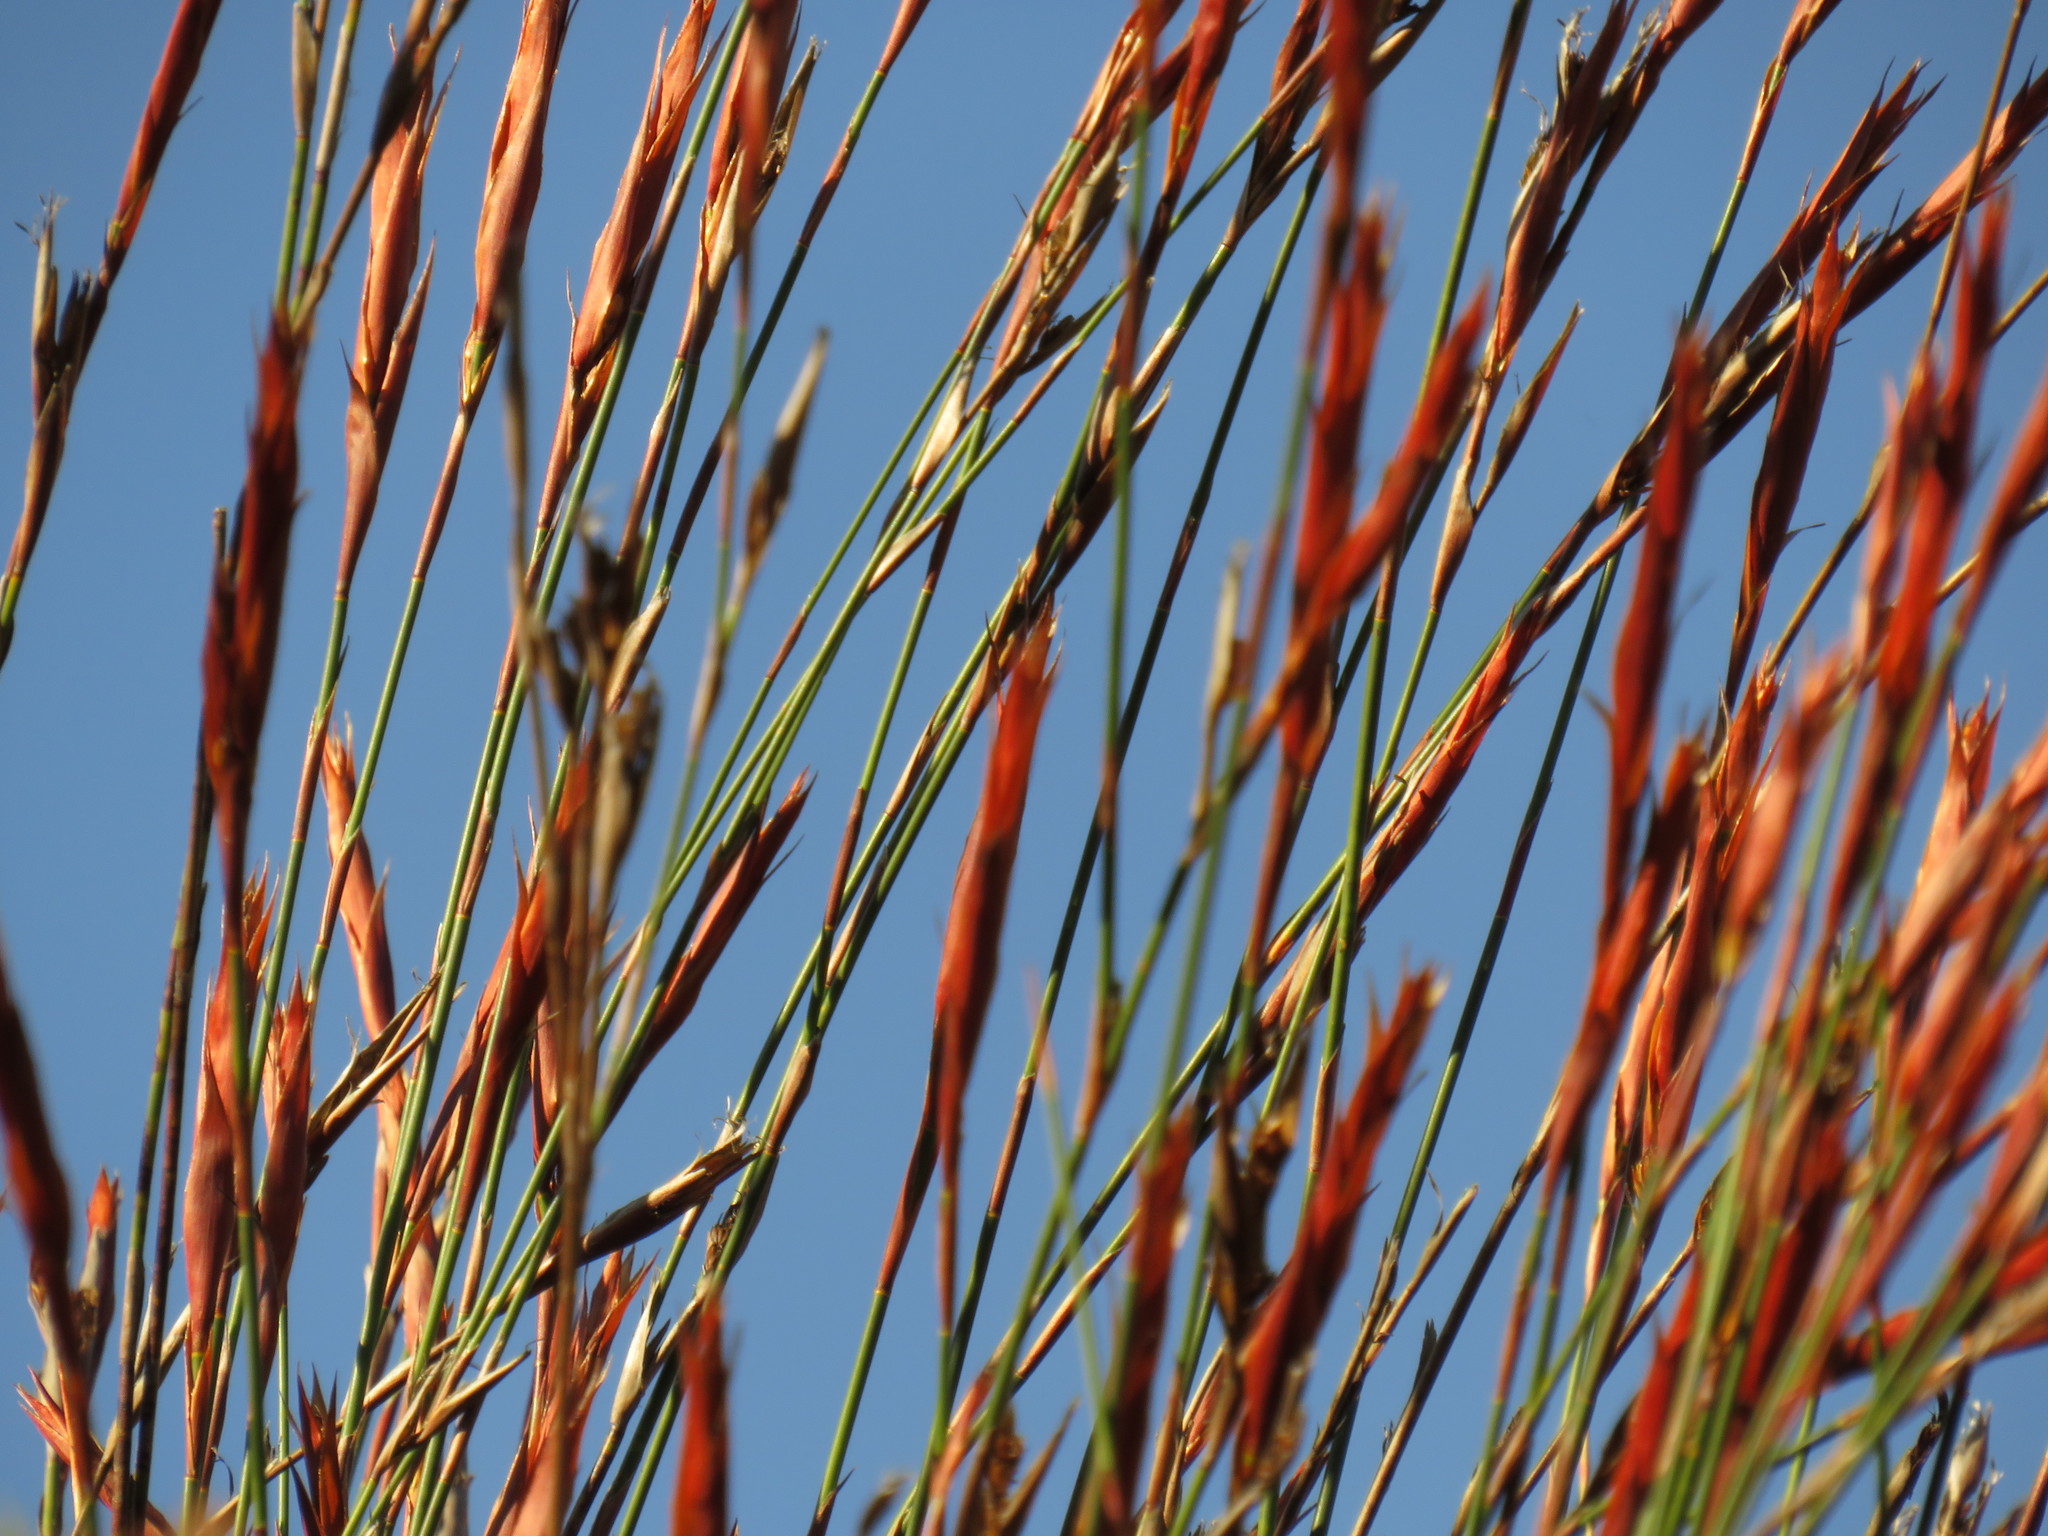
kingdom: Plantae
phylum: Tracheophyta
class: Liliopsida
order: Poales
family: Restionaceae
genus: Restio
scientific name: Restio dispar
